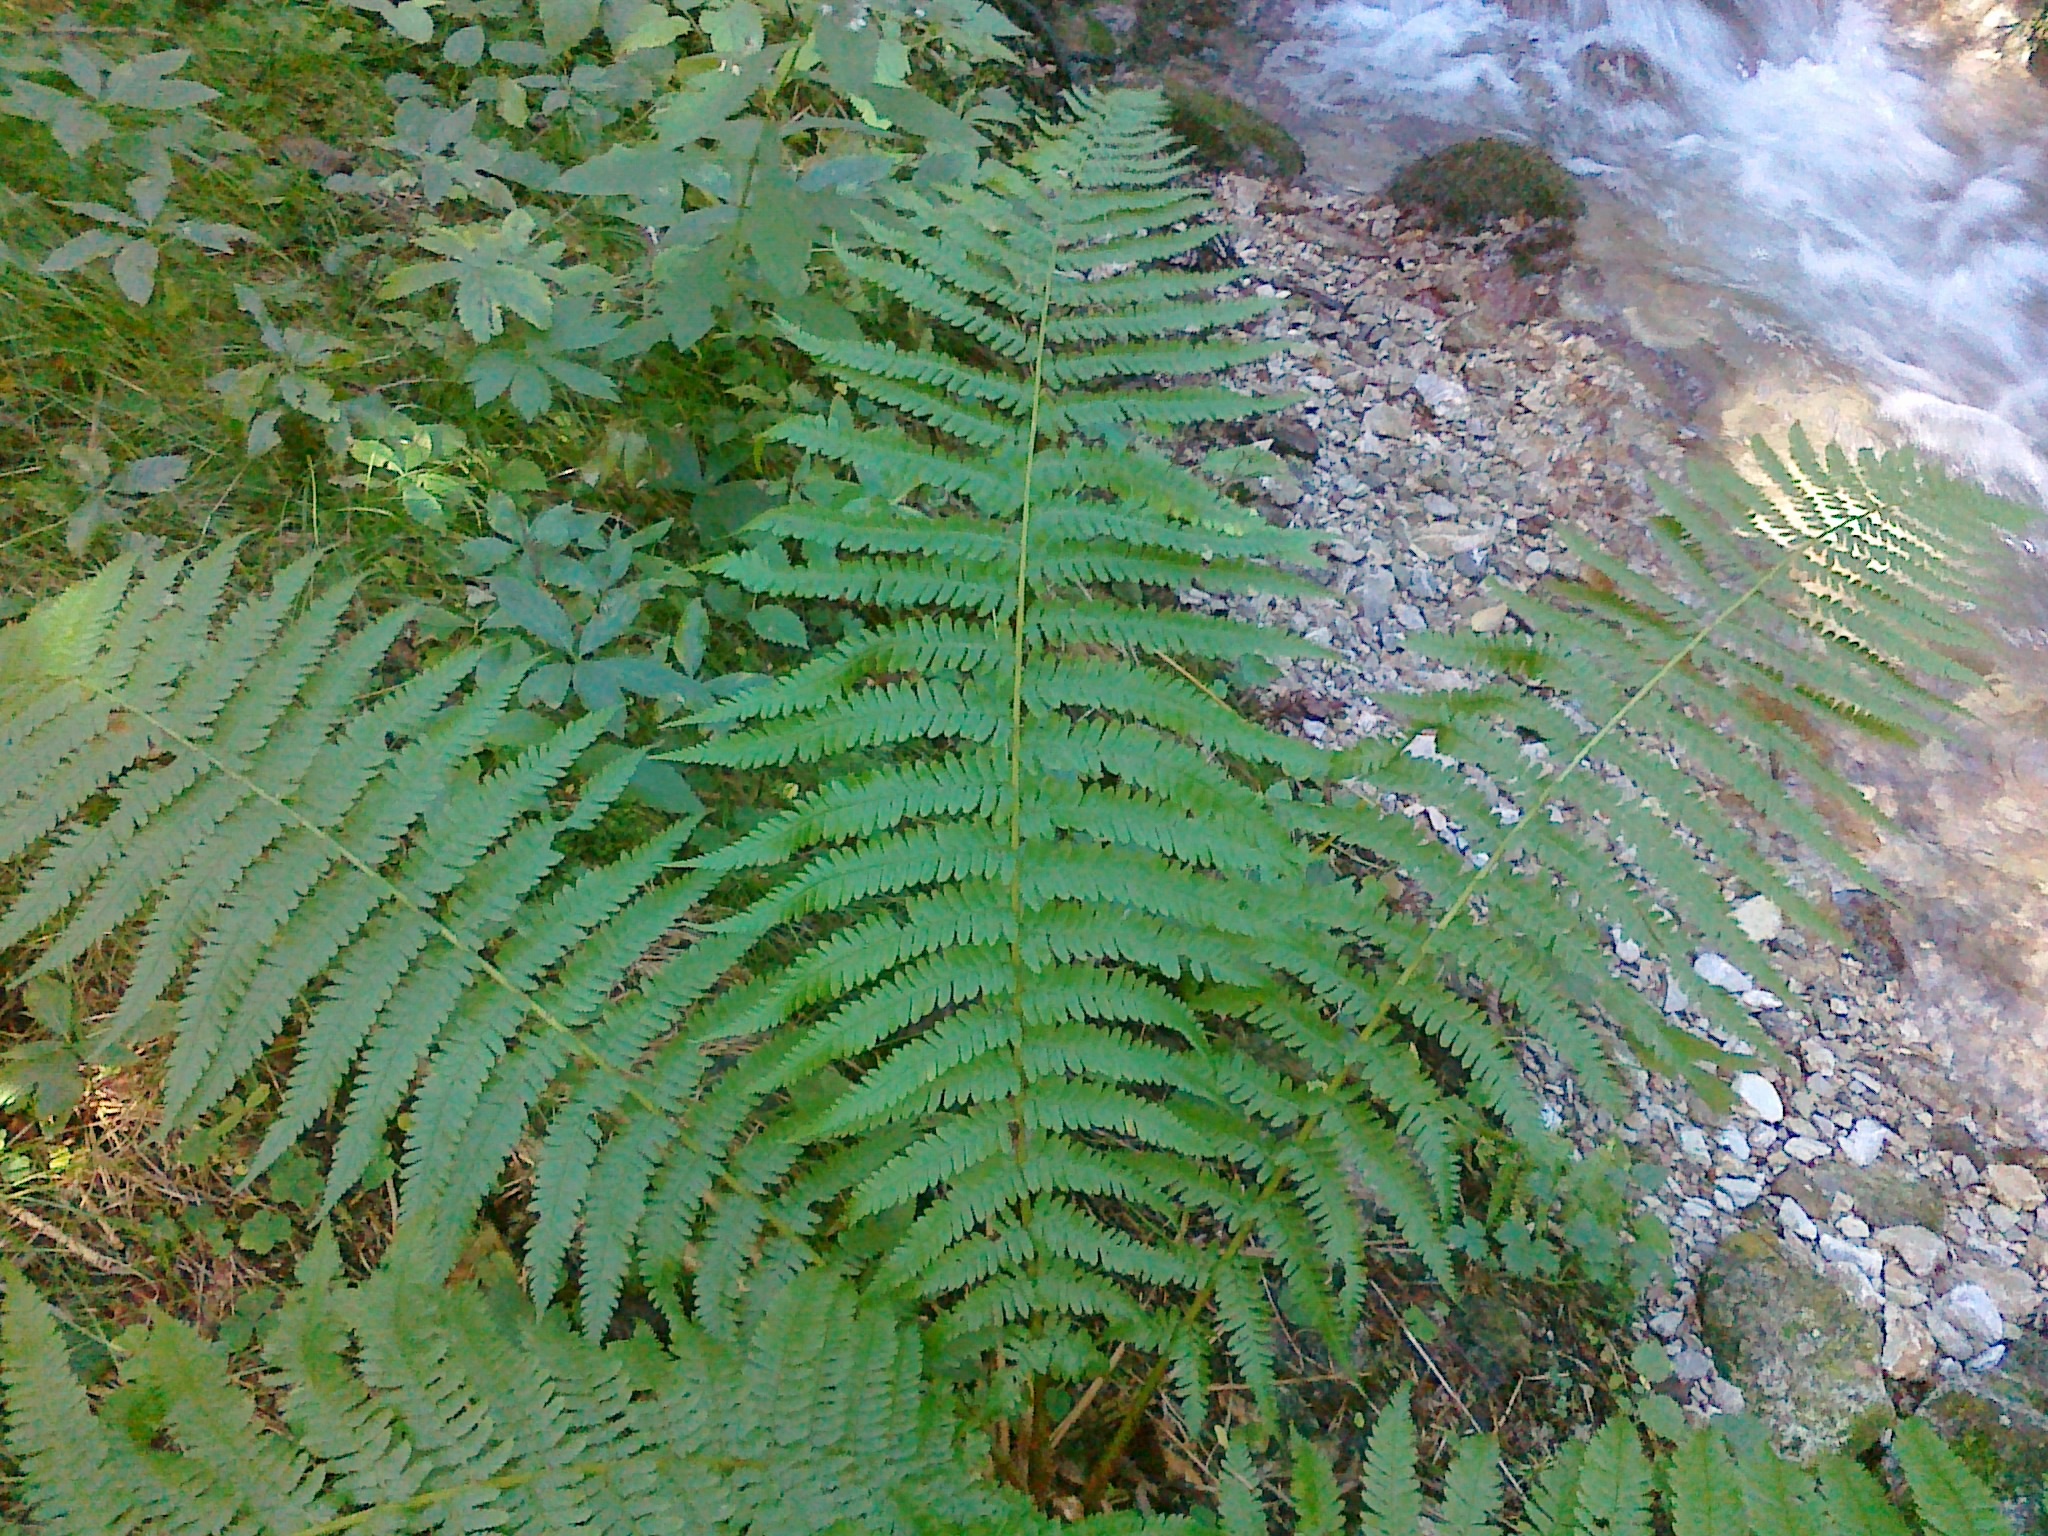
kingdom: Plantae
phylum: Tracheophyta
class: Polypodiopsida
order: Polypodiales
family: Dryopteridaceae
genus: Dryopteris
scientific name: Dryopteris filix-mas
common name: Male fern
